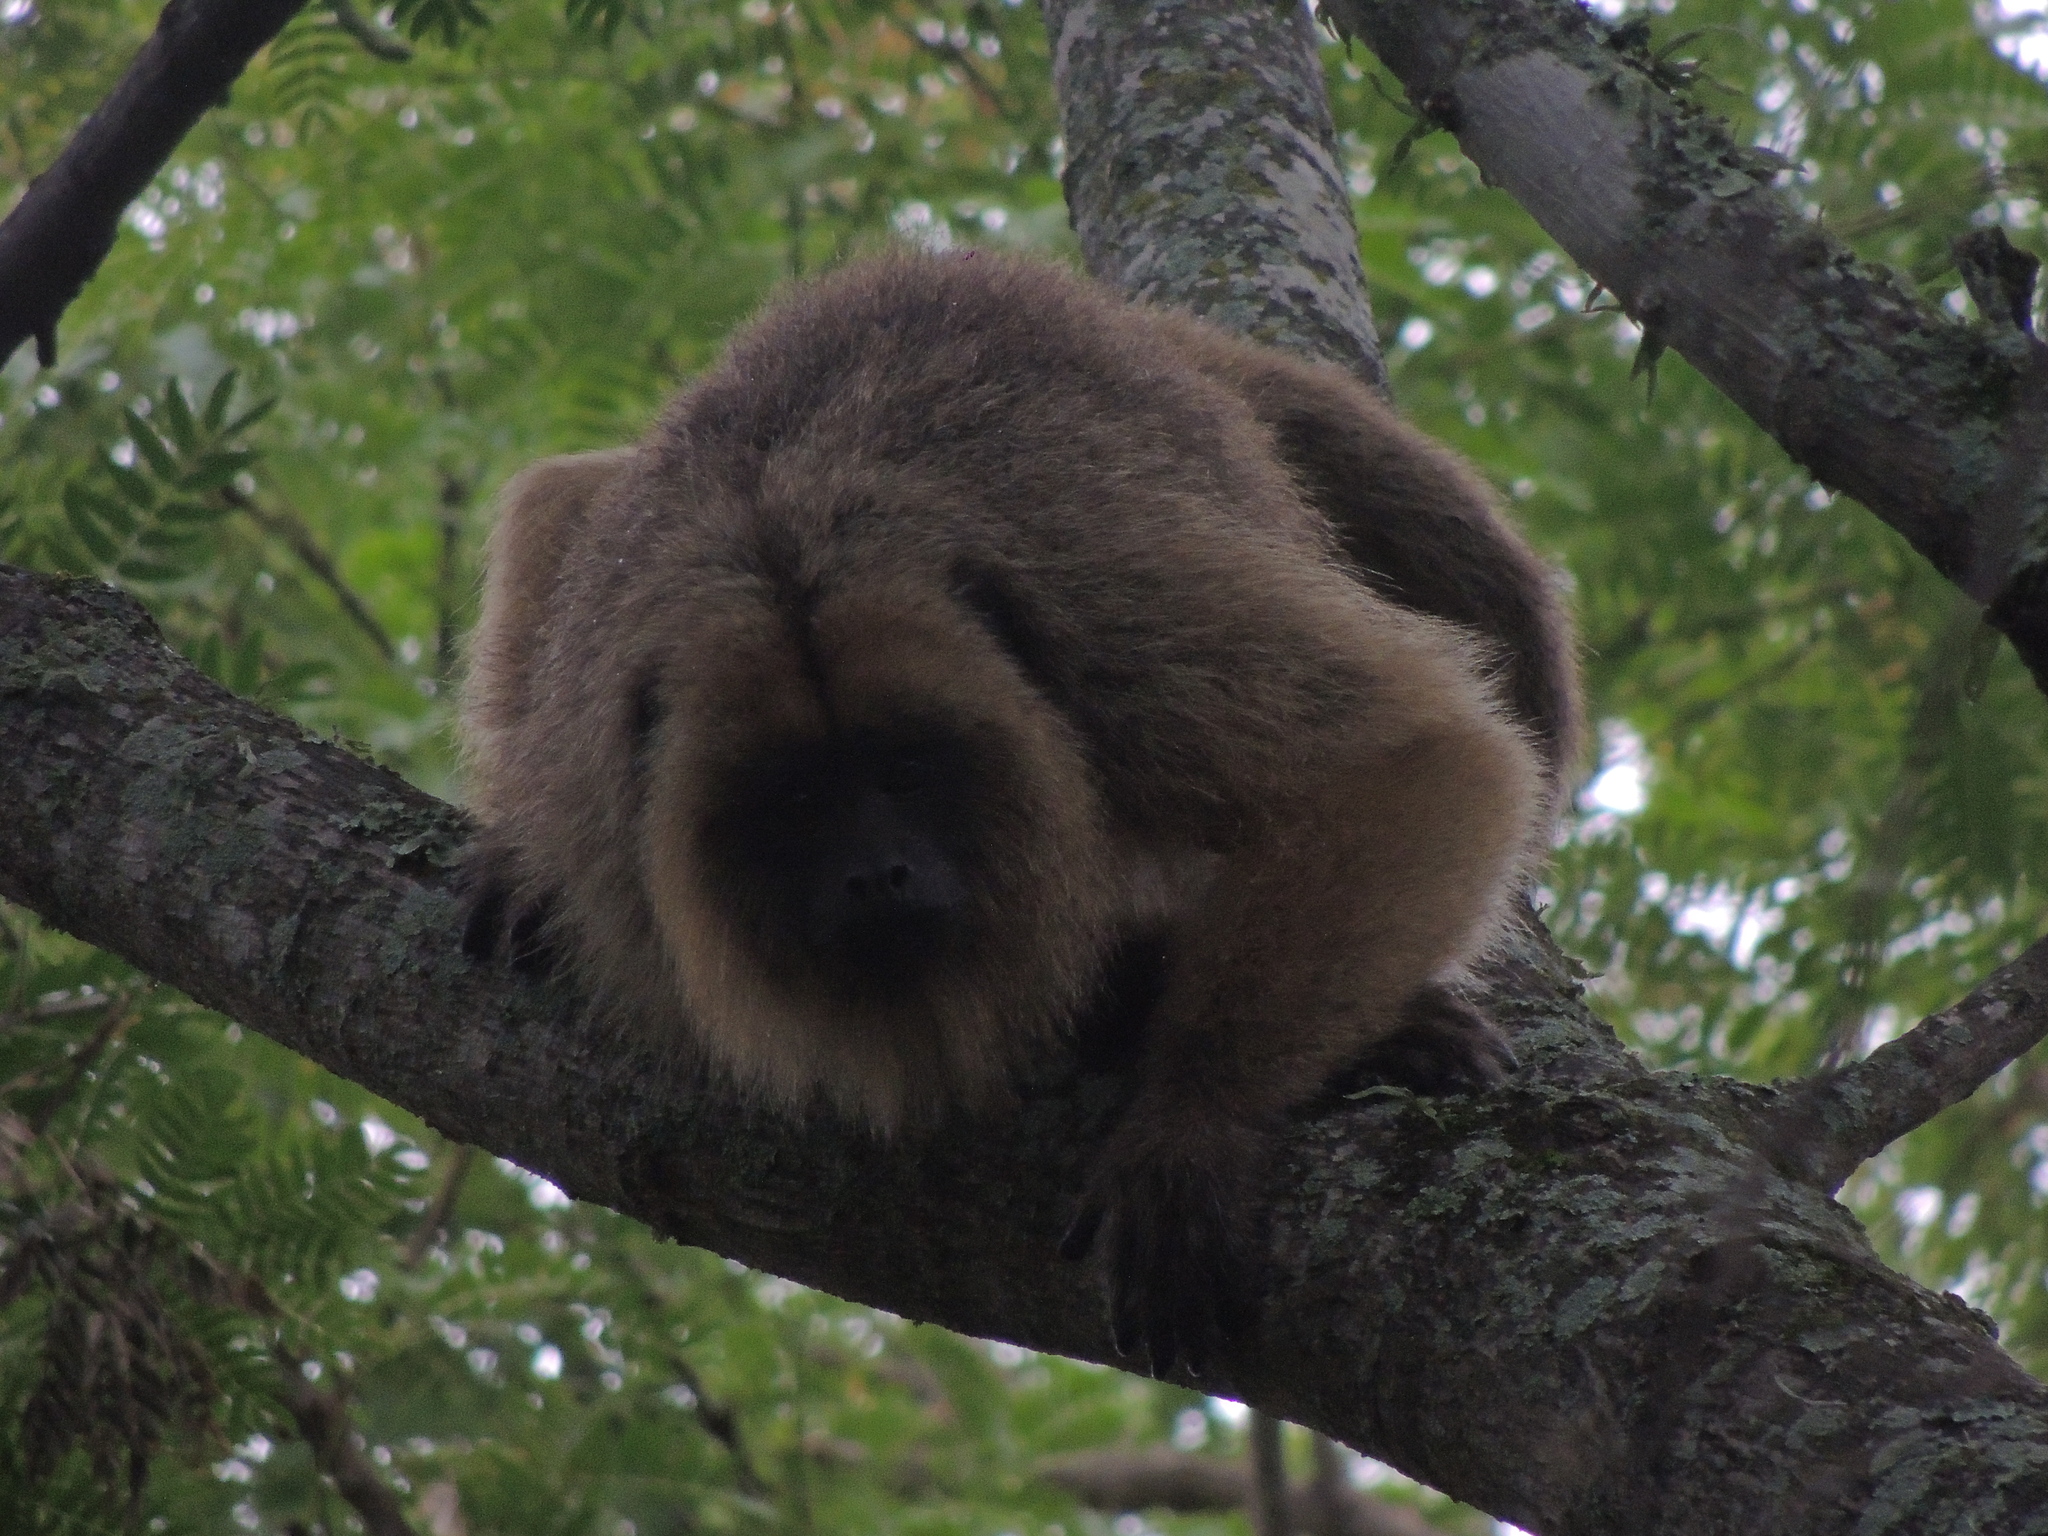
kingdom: Animalia
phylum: Chordata
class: Mammalia
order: Primates
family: Atelidae
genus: Alouatta
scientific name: Alouatta caraya
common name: Black howler
